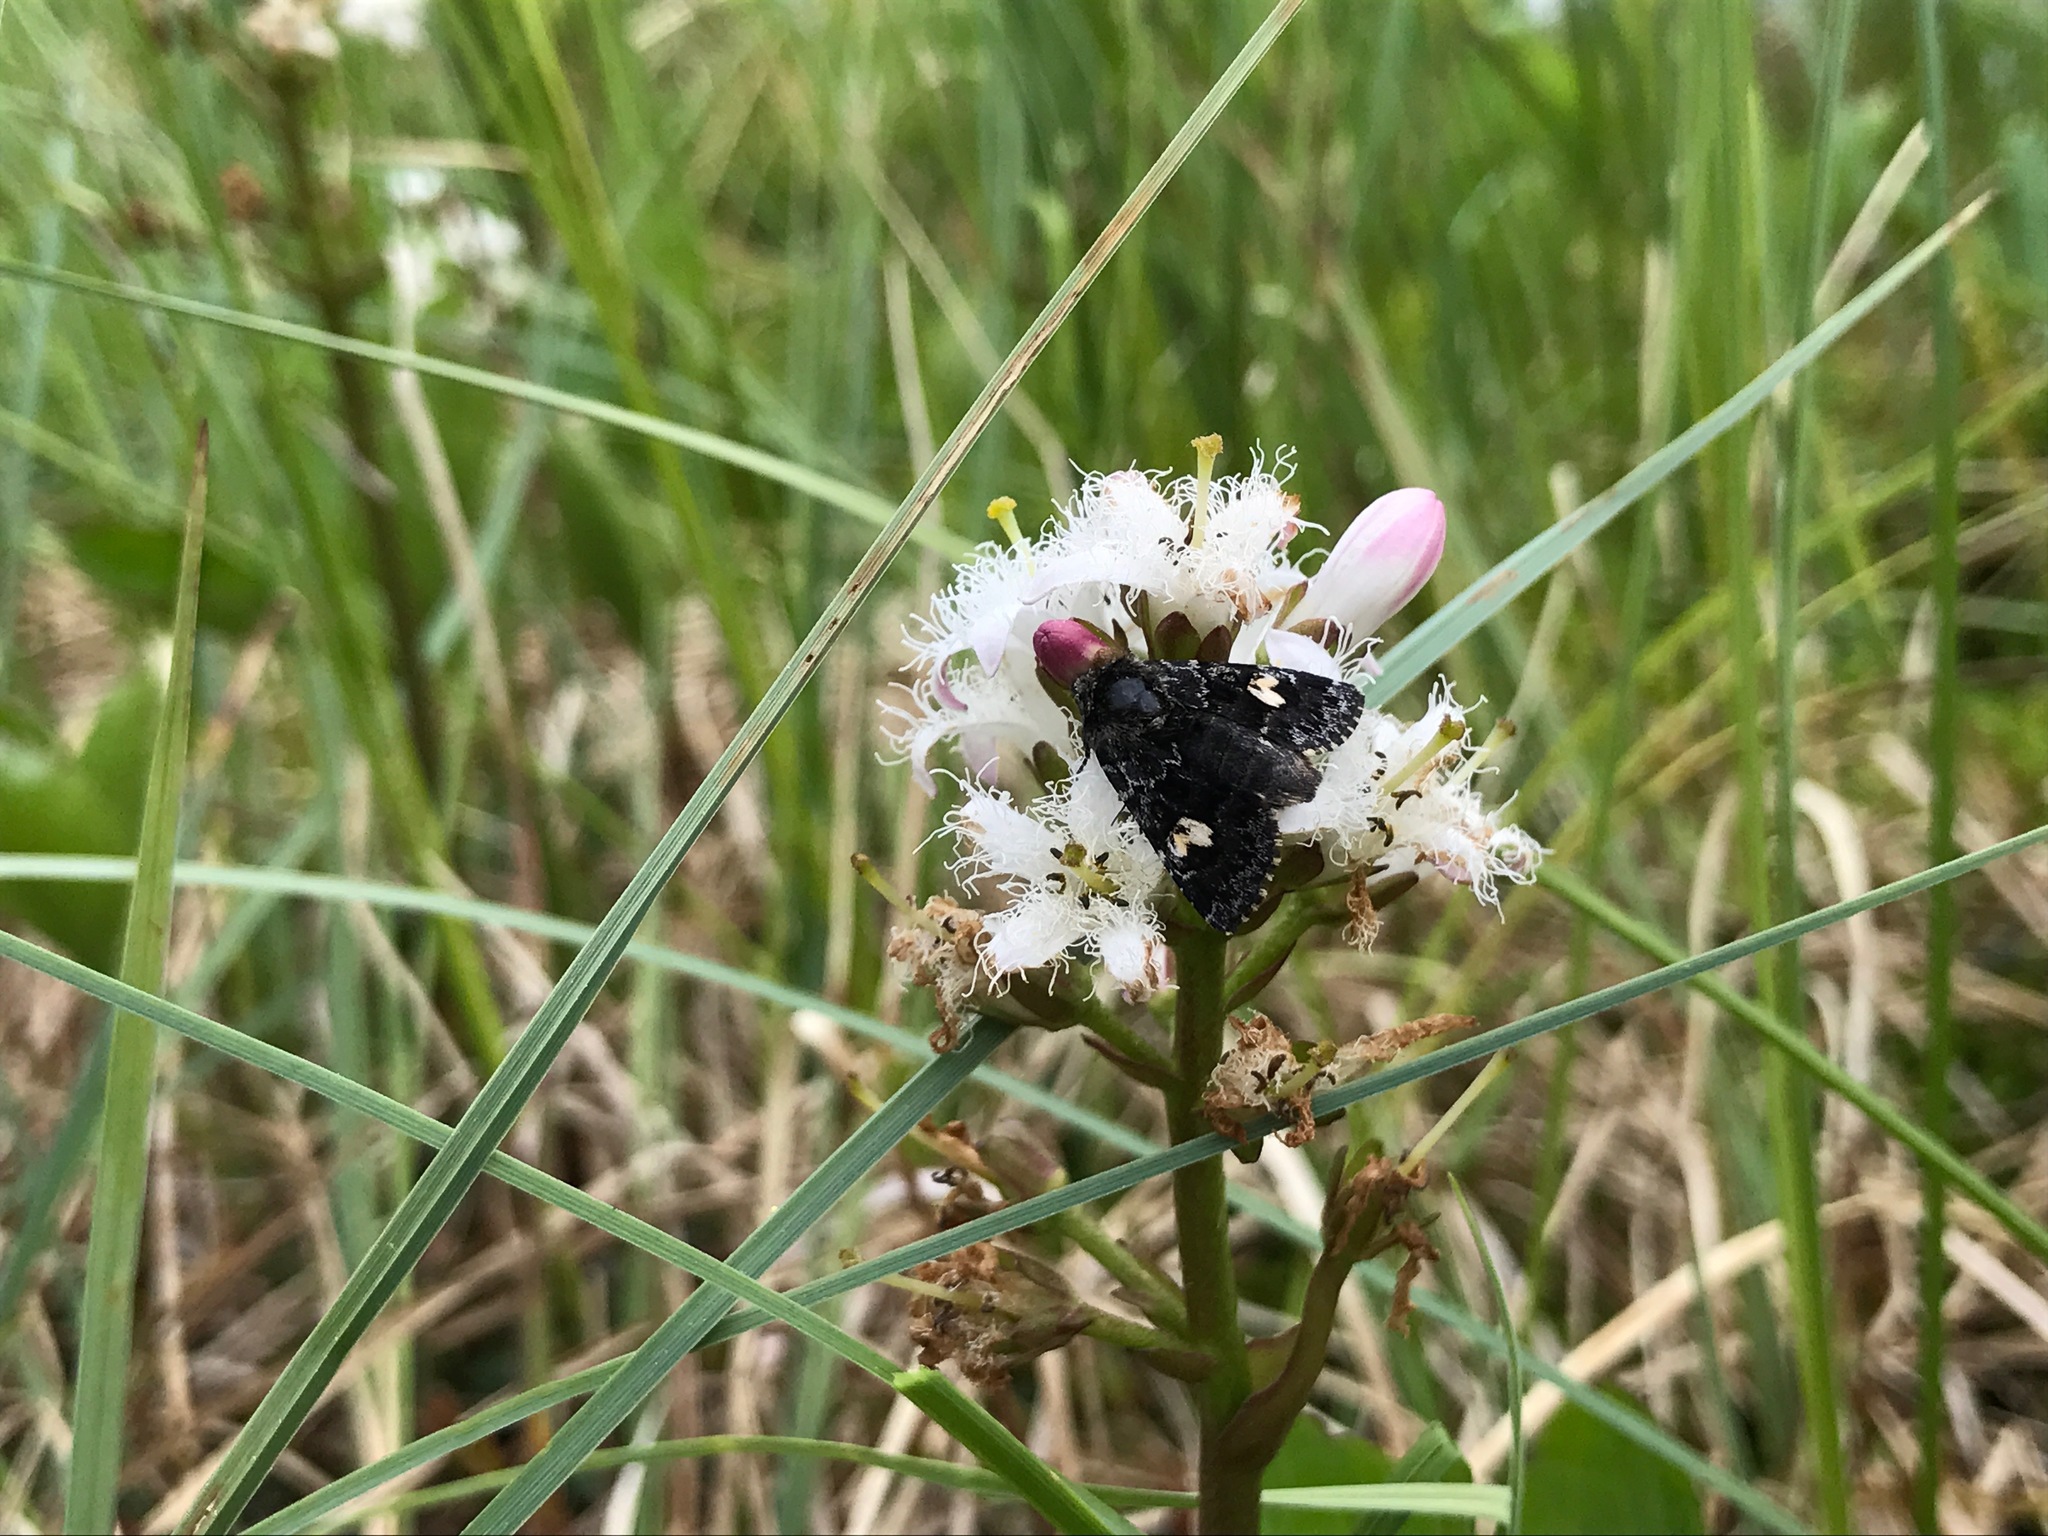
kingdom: Animalia
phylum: Arthropoda
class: Insecta
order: Lepidoptera
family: Noctuidae
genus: Coranarta
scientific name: Coranarta cordigera
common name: Small dark yellow underwing
